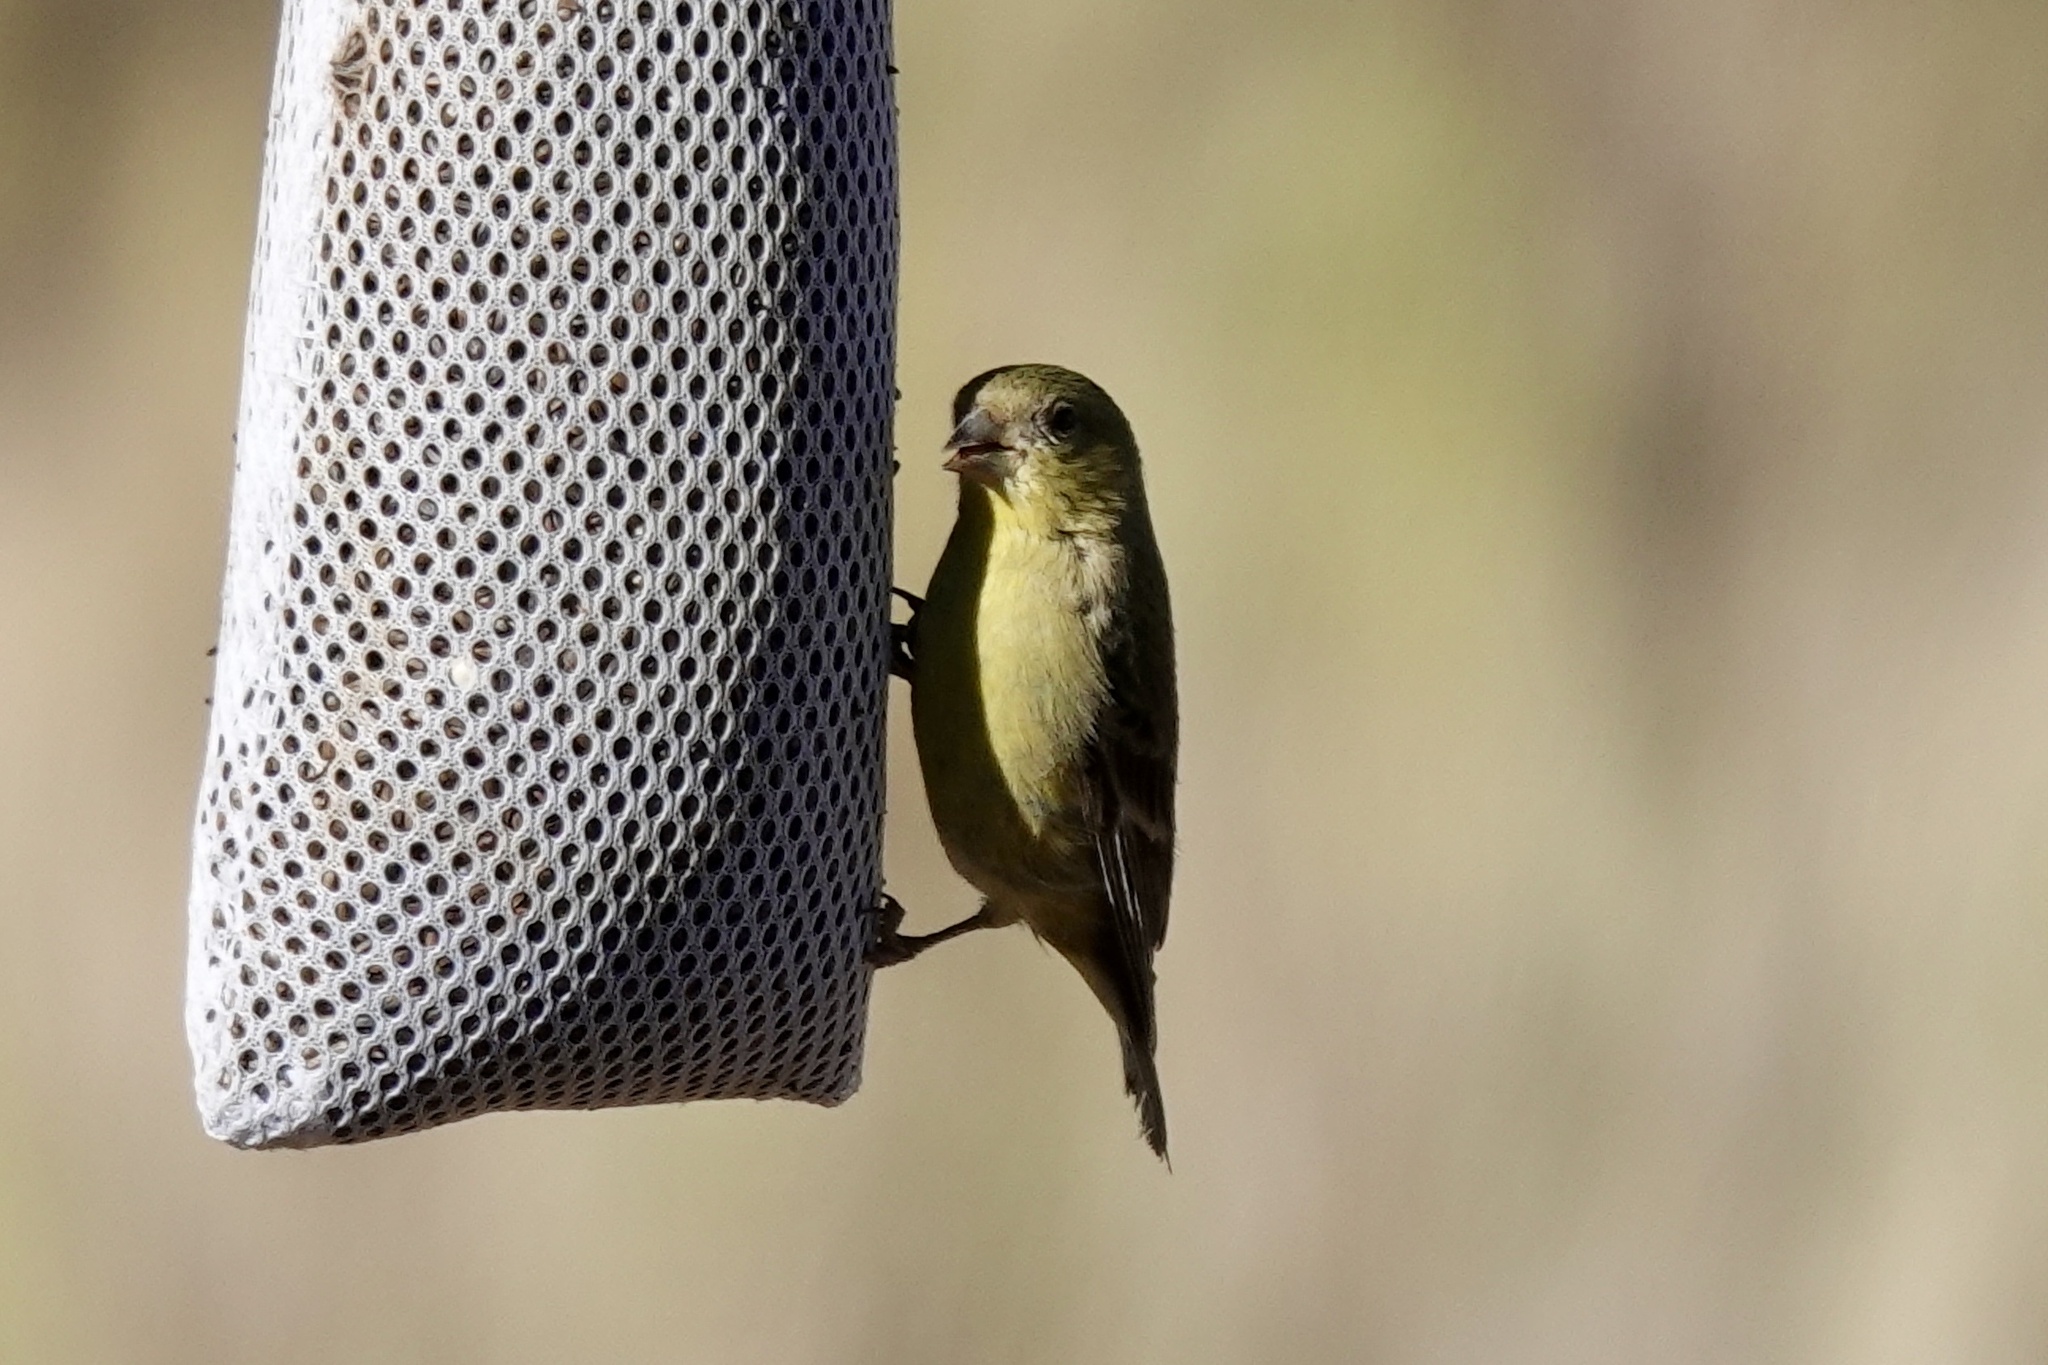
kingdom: Animalia
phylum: Chordata
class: Aves
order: Passeriformes
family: Fringillidae
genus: Spinus
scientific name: Spinus psaltria
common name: Lesser goldfinch
